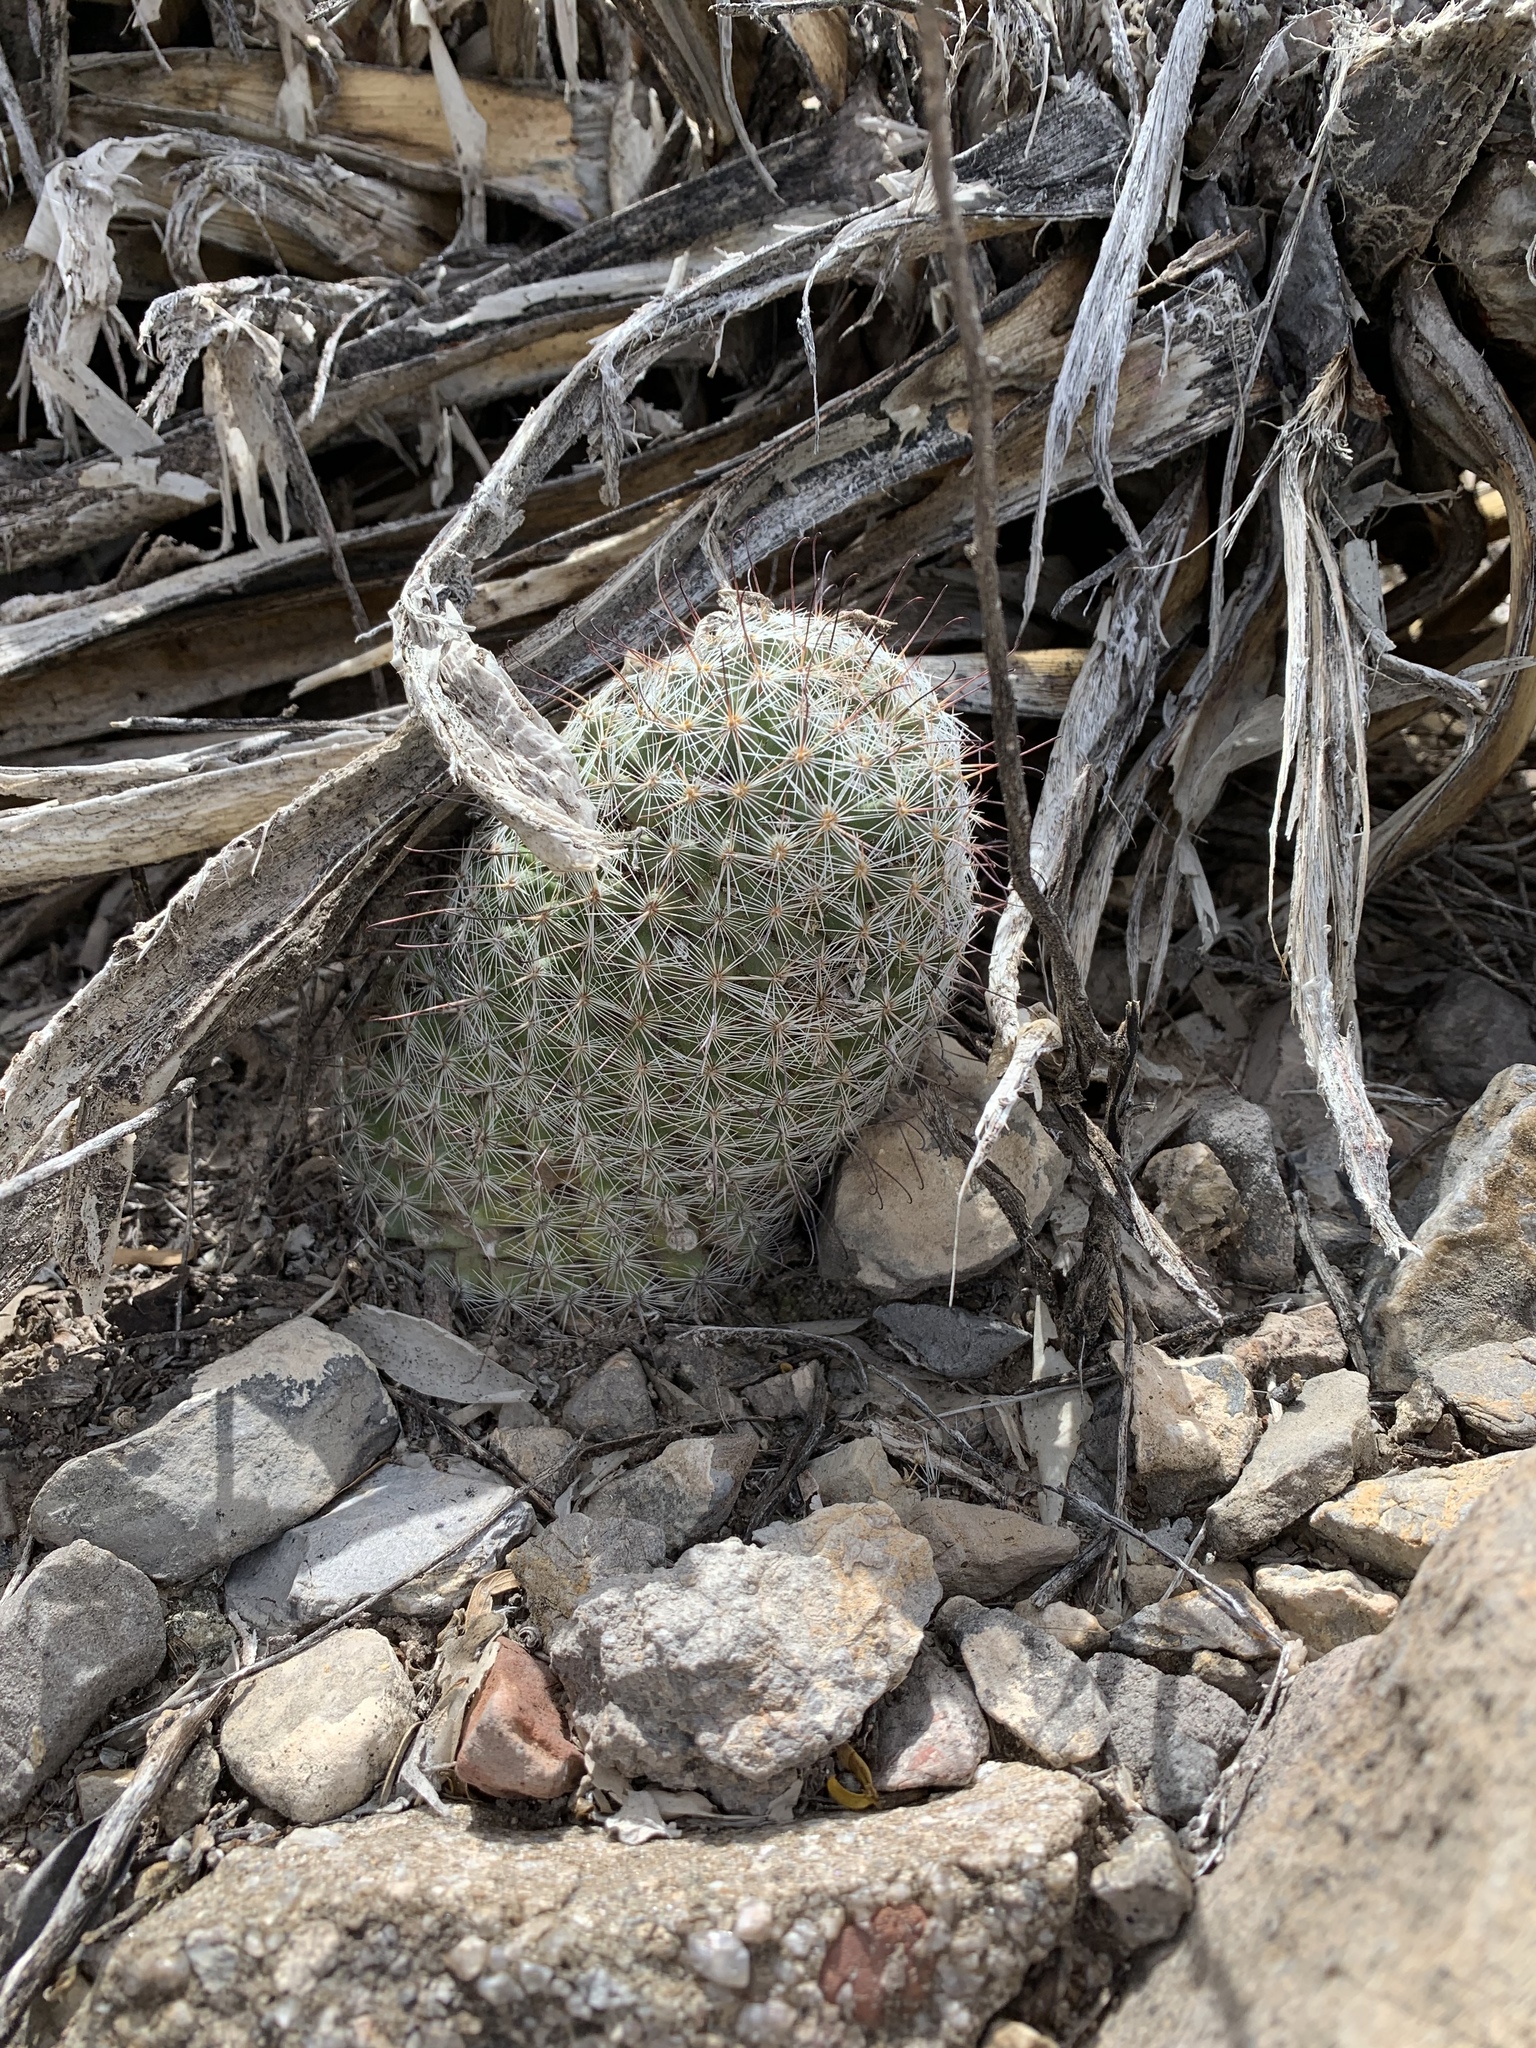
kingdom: Plantae
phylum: Tracheophyta
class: Magnoliopsida
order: Caryophyllales
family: Cactaceae
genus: Cochemiea
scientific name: Cochemiea grahamii
